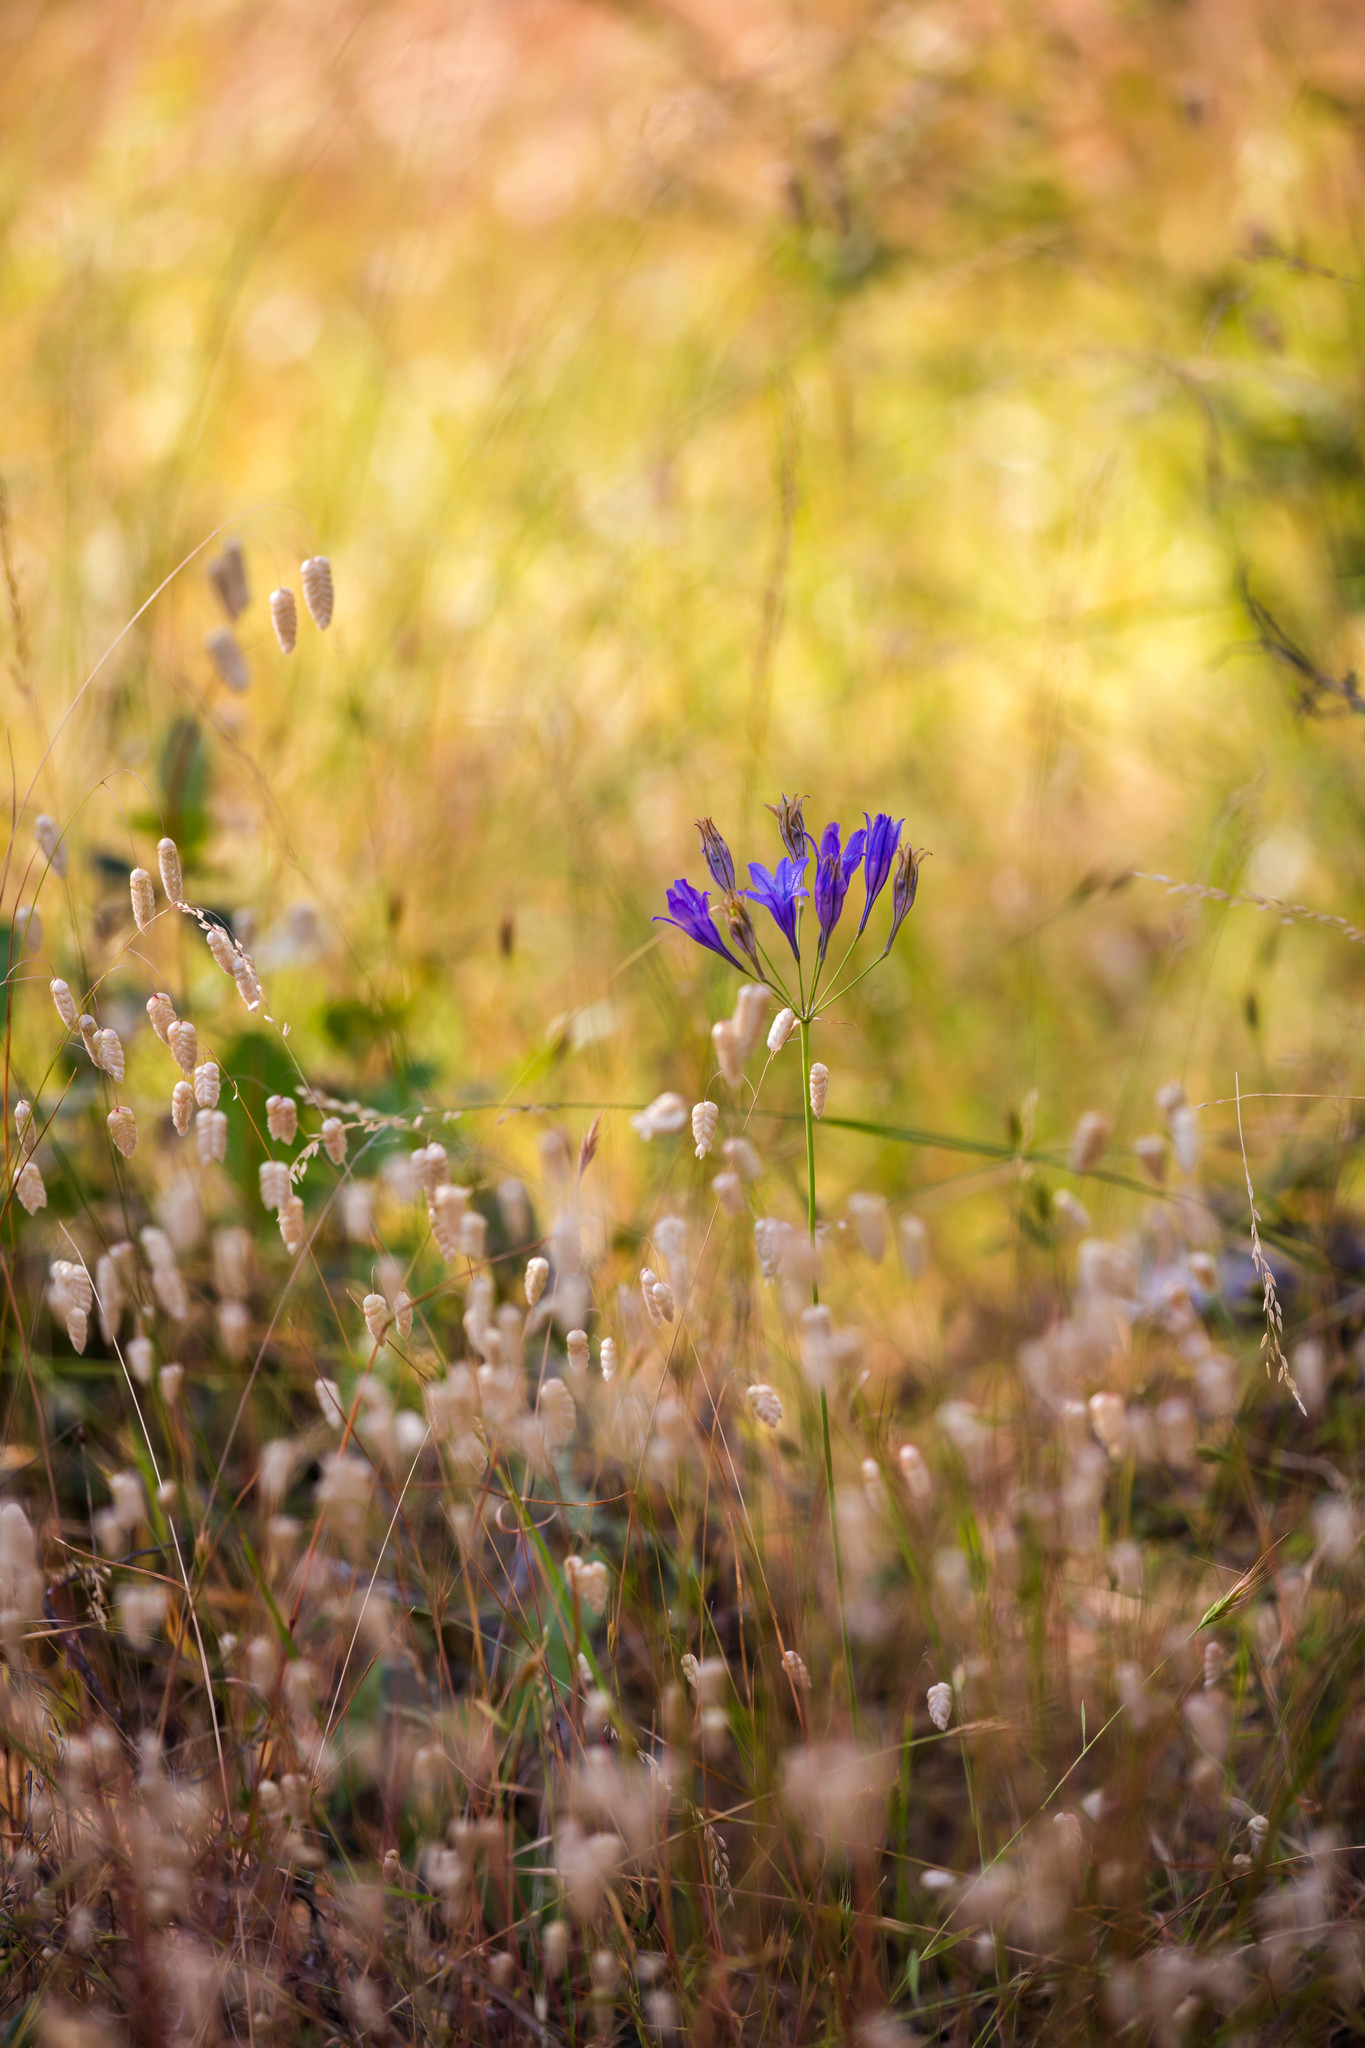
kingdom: Plantae
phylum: Tracheophyta
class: Liliopsida
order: Asparagales
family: Asparagaceae
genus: Triteleia
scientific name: Triteleia laxa
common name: Triplet-lily
